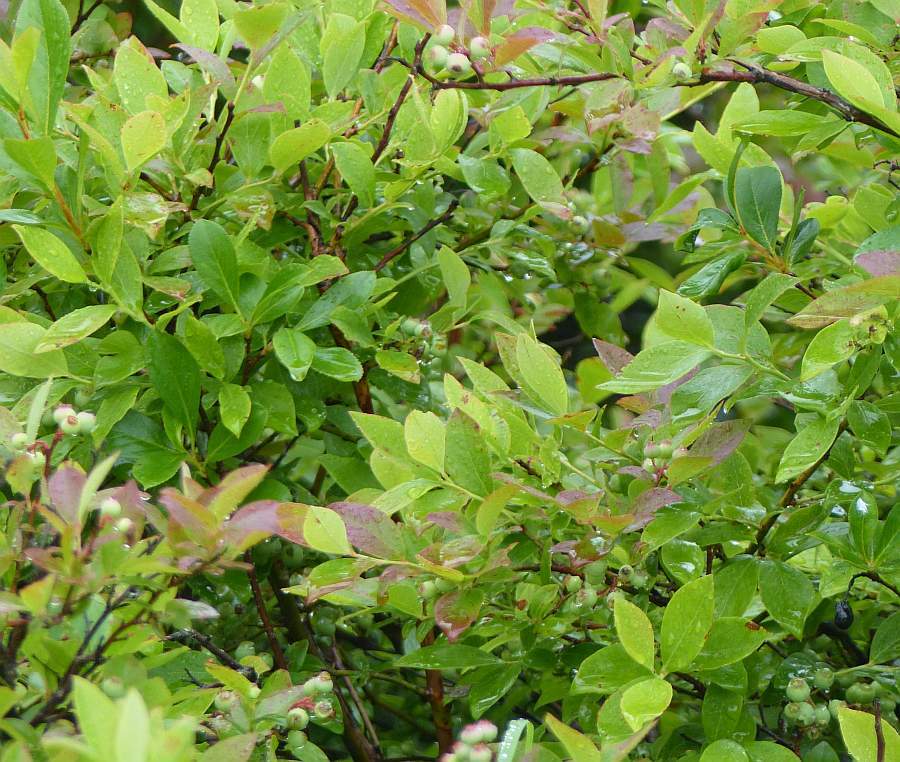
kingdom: Plantae
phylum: Tracheophyta
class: Magnoliopsida
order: Ericales
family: Ericaceae
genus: Gaylussacia
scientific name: Gaylussacia baccata
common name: Black huckleberry
